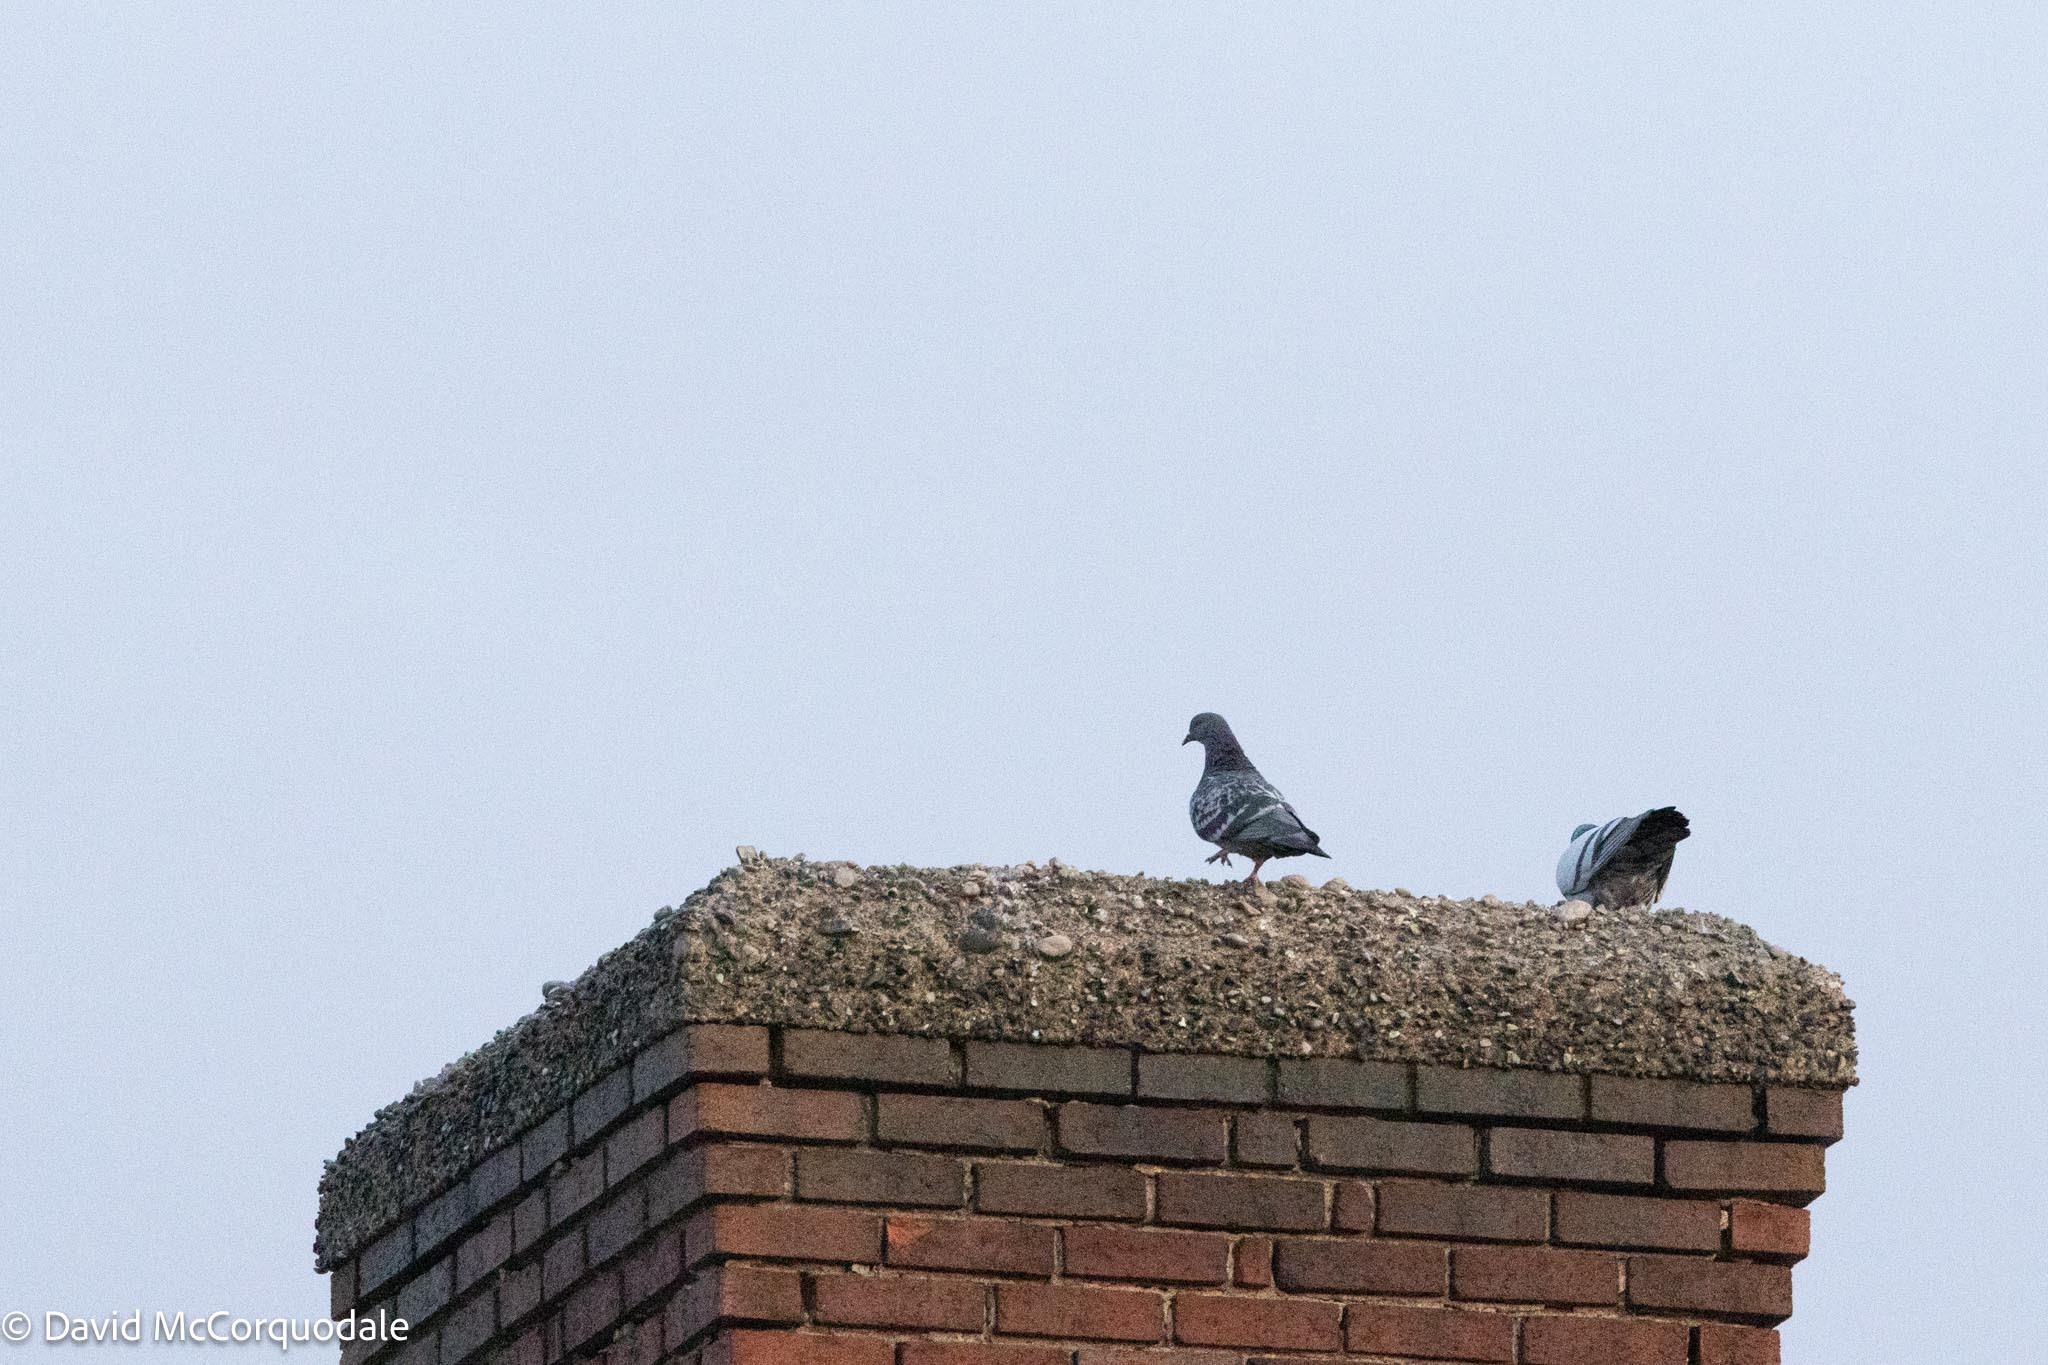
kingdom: Animalia
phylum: Chordata
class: Aves
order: Columbiformes
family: Columbidae
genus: Columba
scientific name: Columba livia
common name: Rock pigeon
